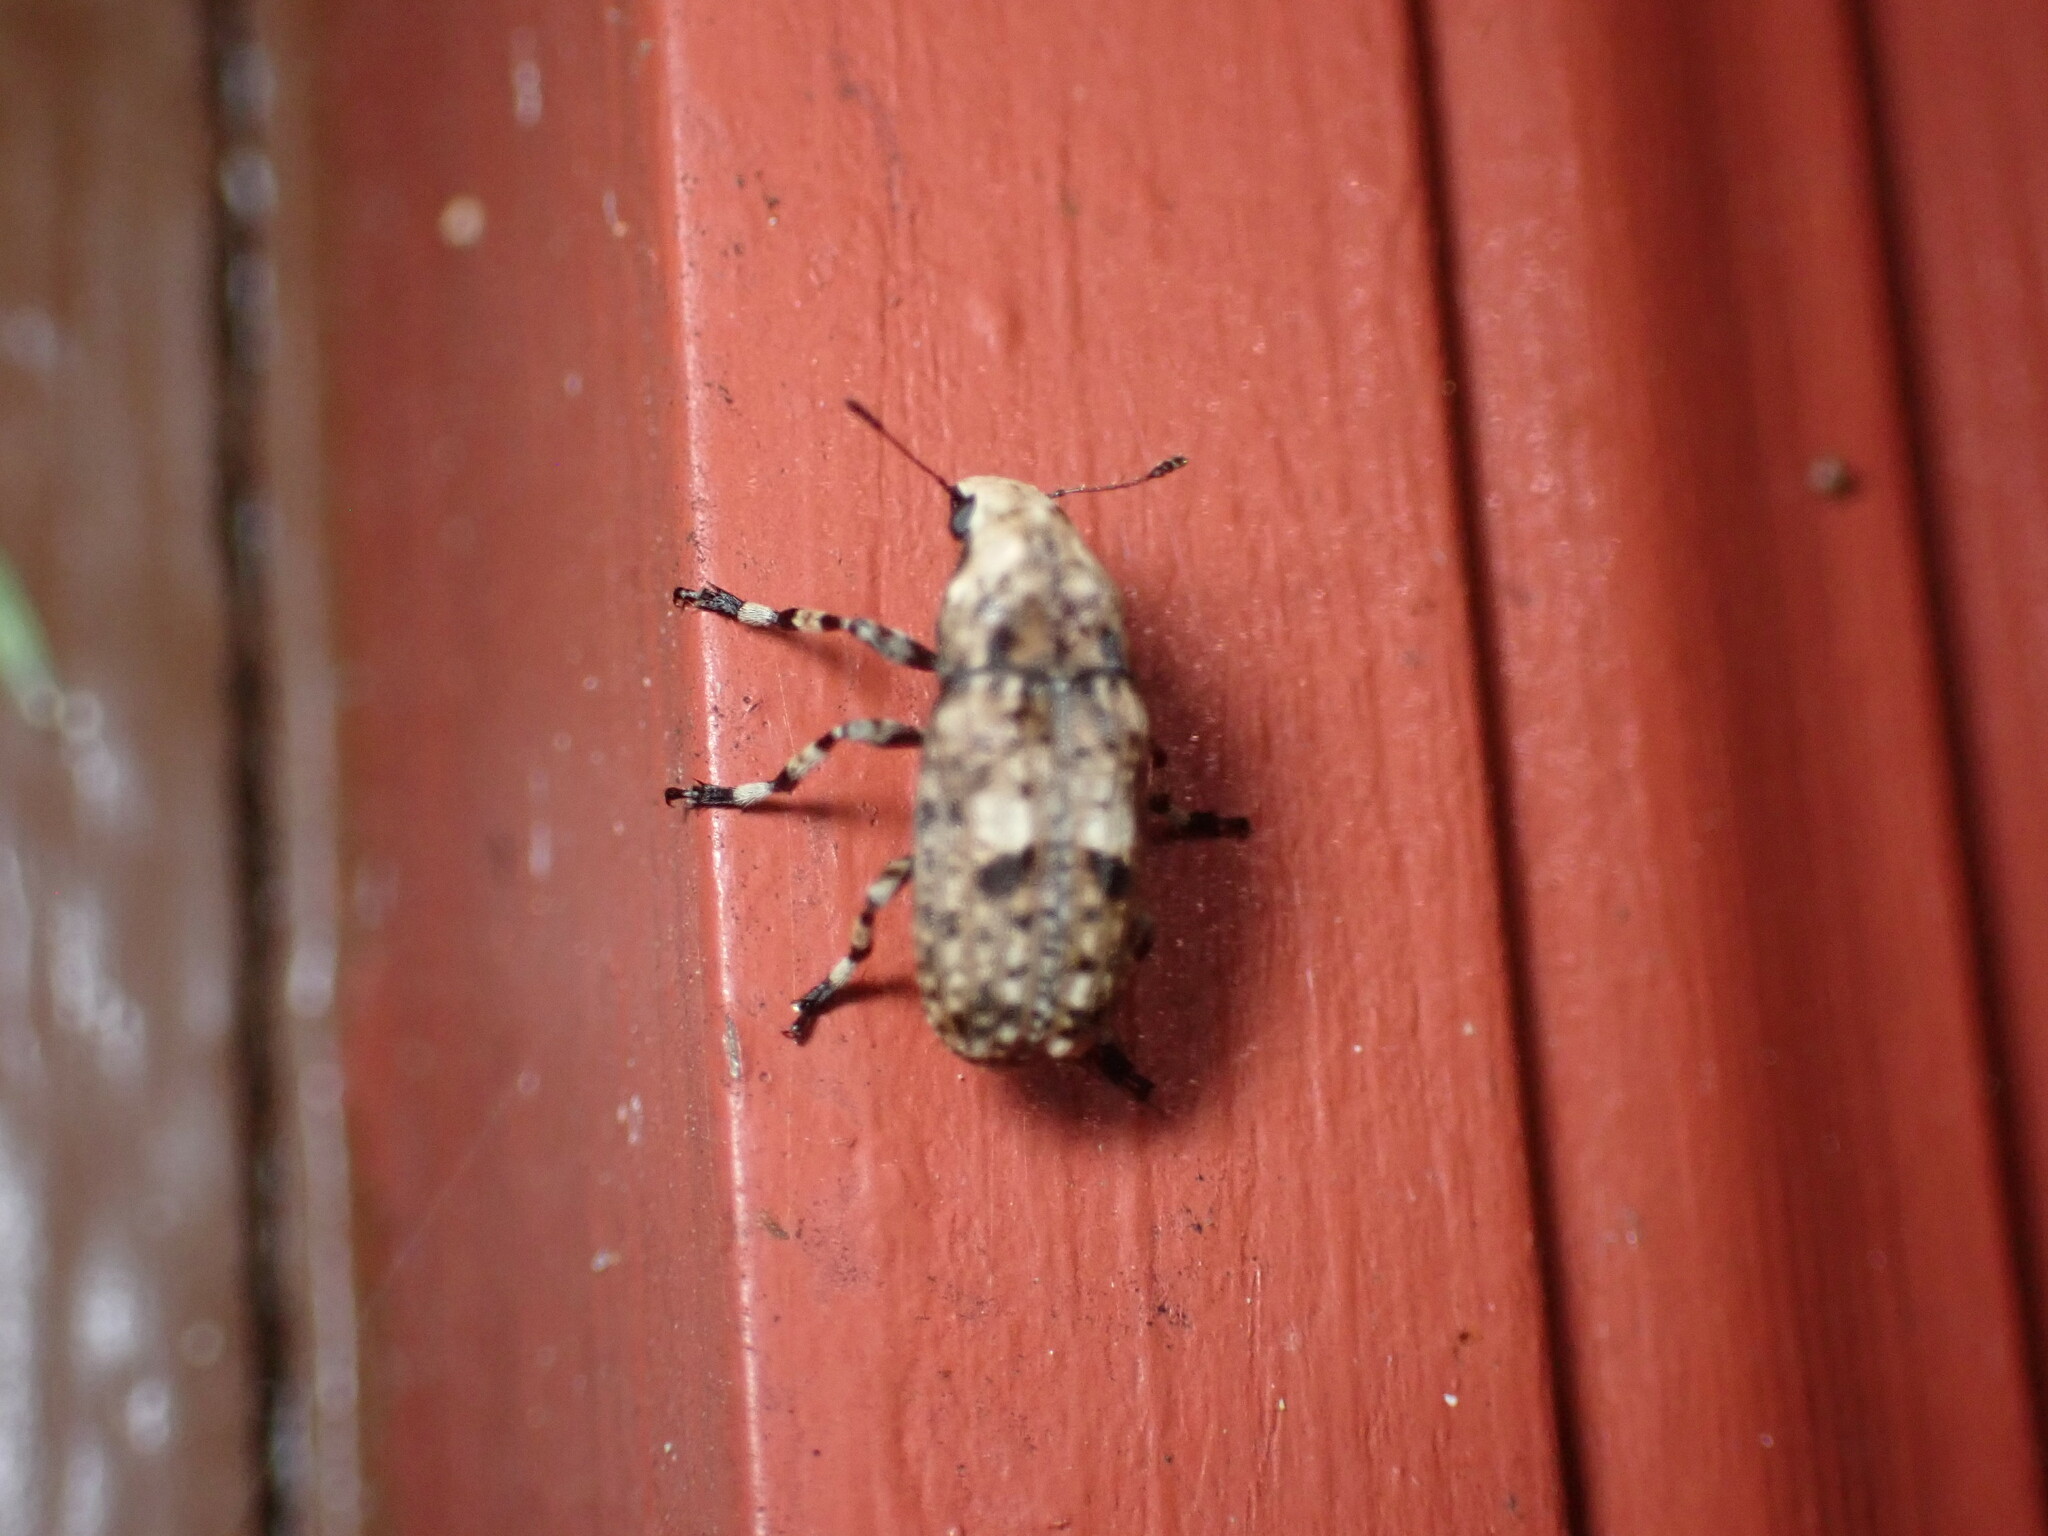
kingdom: Animalia
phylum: Arthropoda
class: Insecta
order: Coleoptera
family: Anthribidae
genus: Euparius
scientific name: Euparius marmoreus
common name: Marbled fungus weevil
